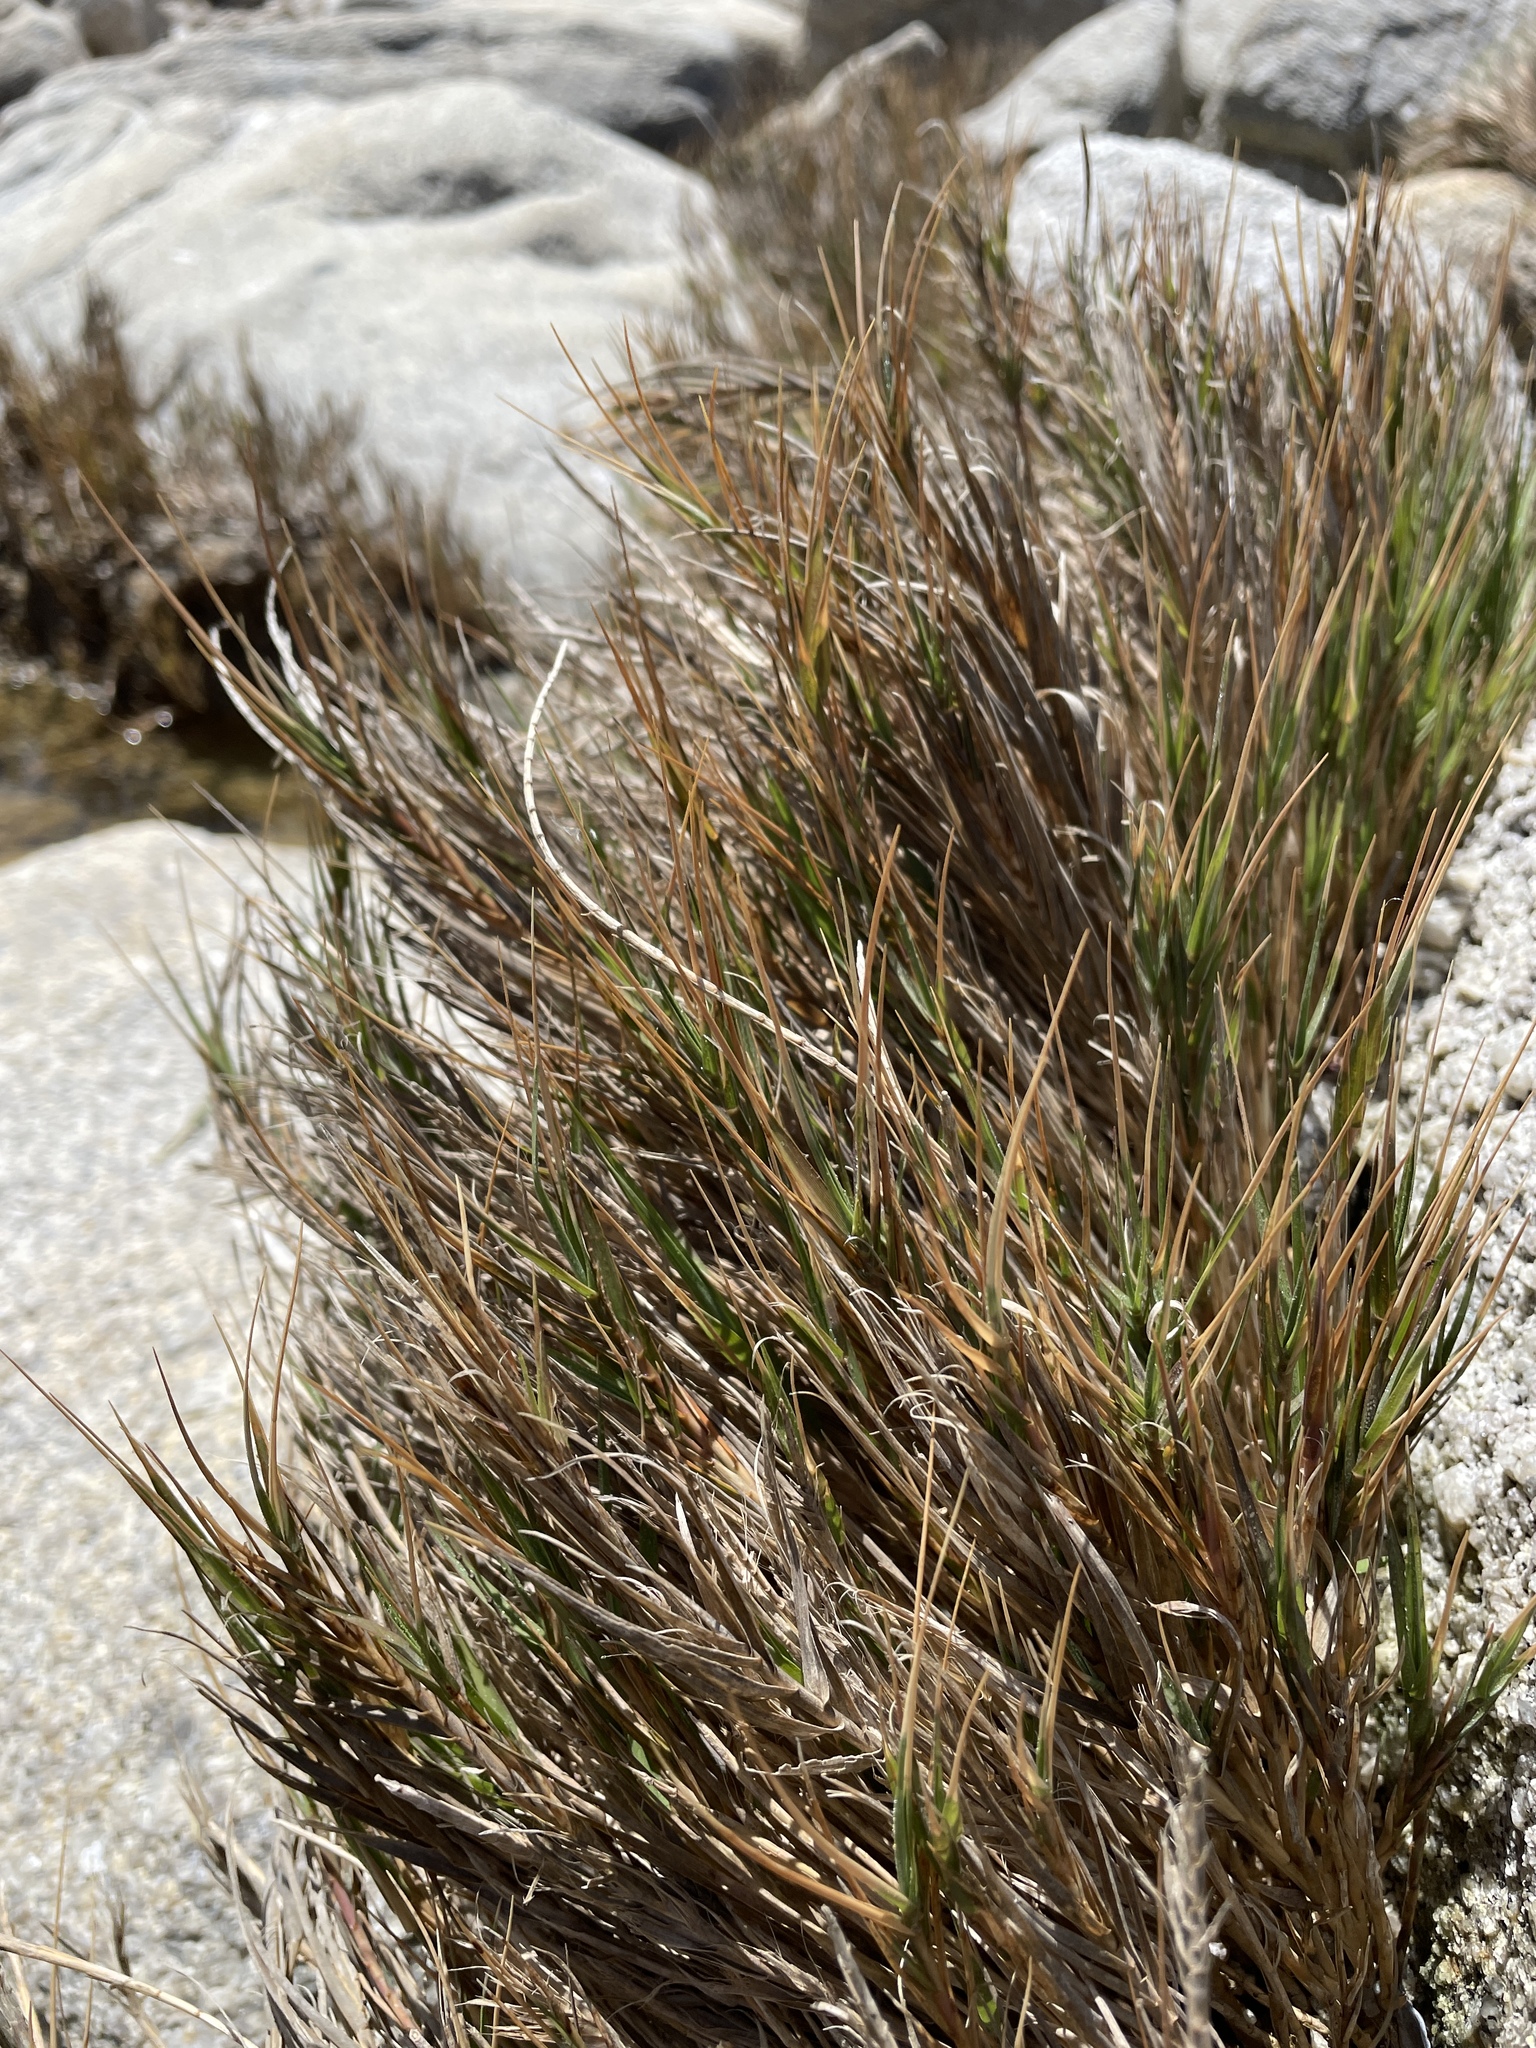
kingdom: Plantae
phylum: Tracheophyta
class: Liliopsida
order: Poales
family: Poaceae
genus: Distichlis
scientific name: Distichlis spicata
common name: Saltgrass
